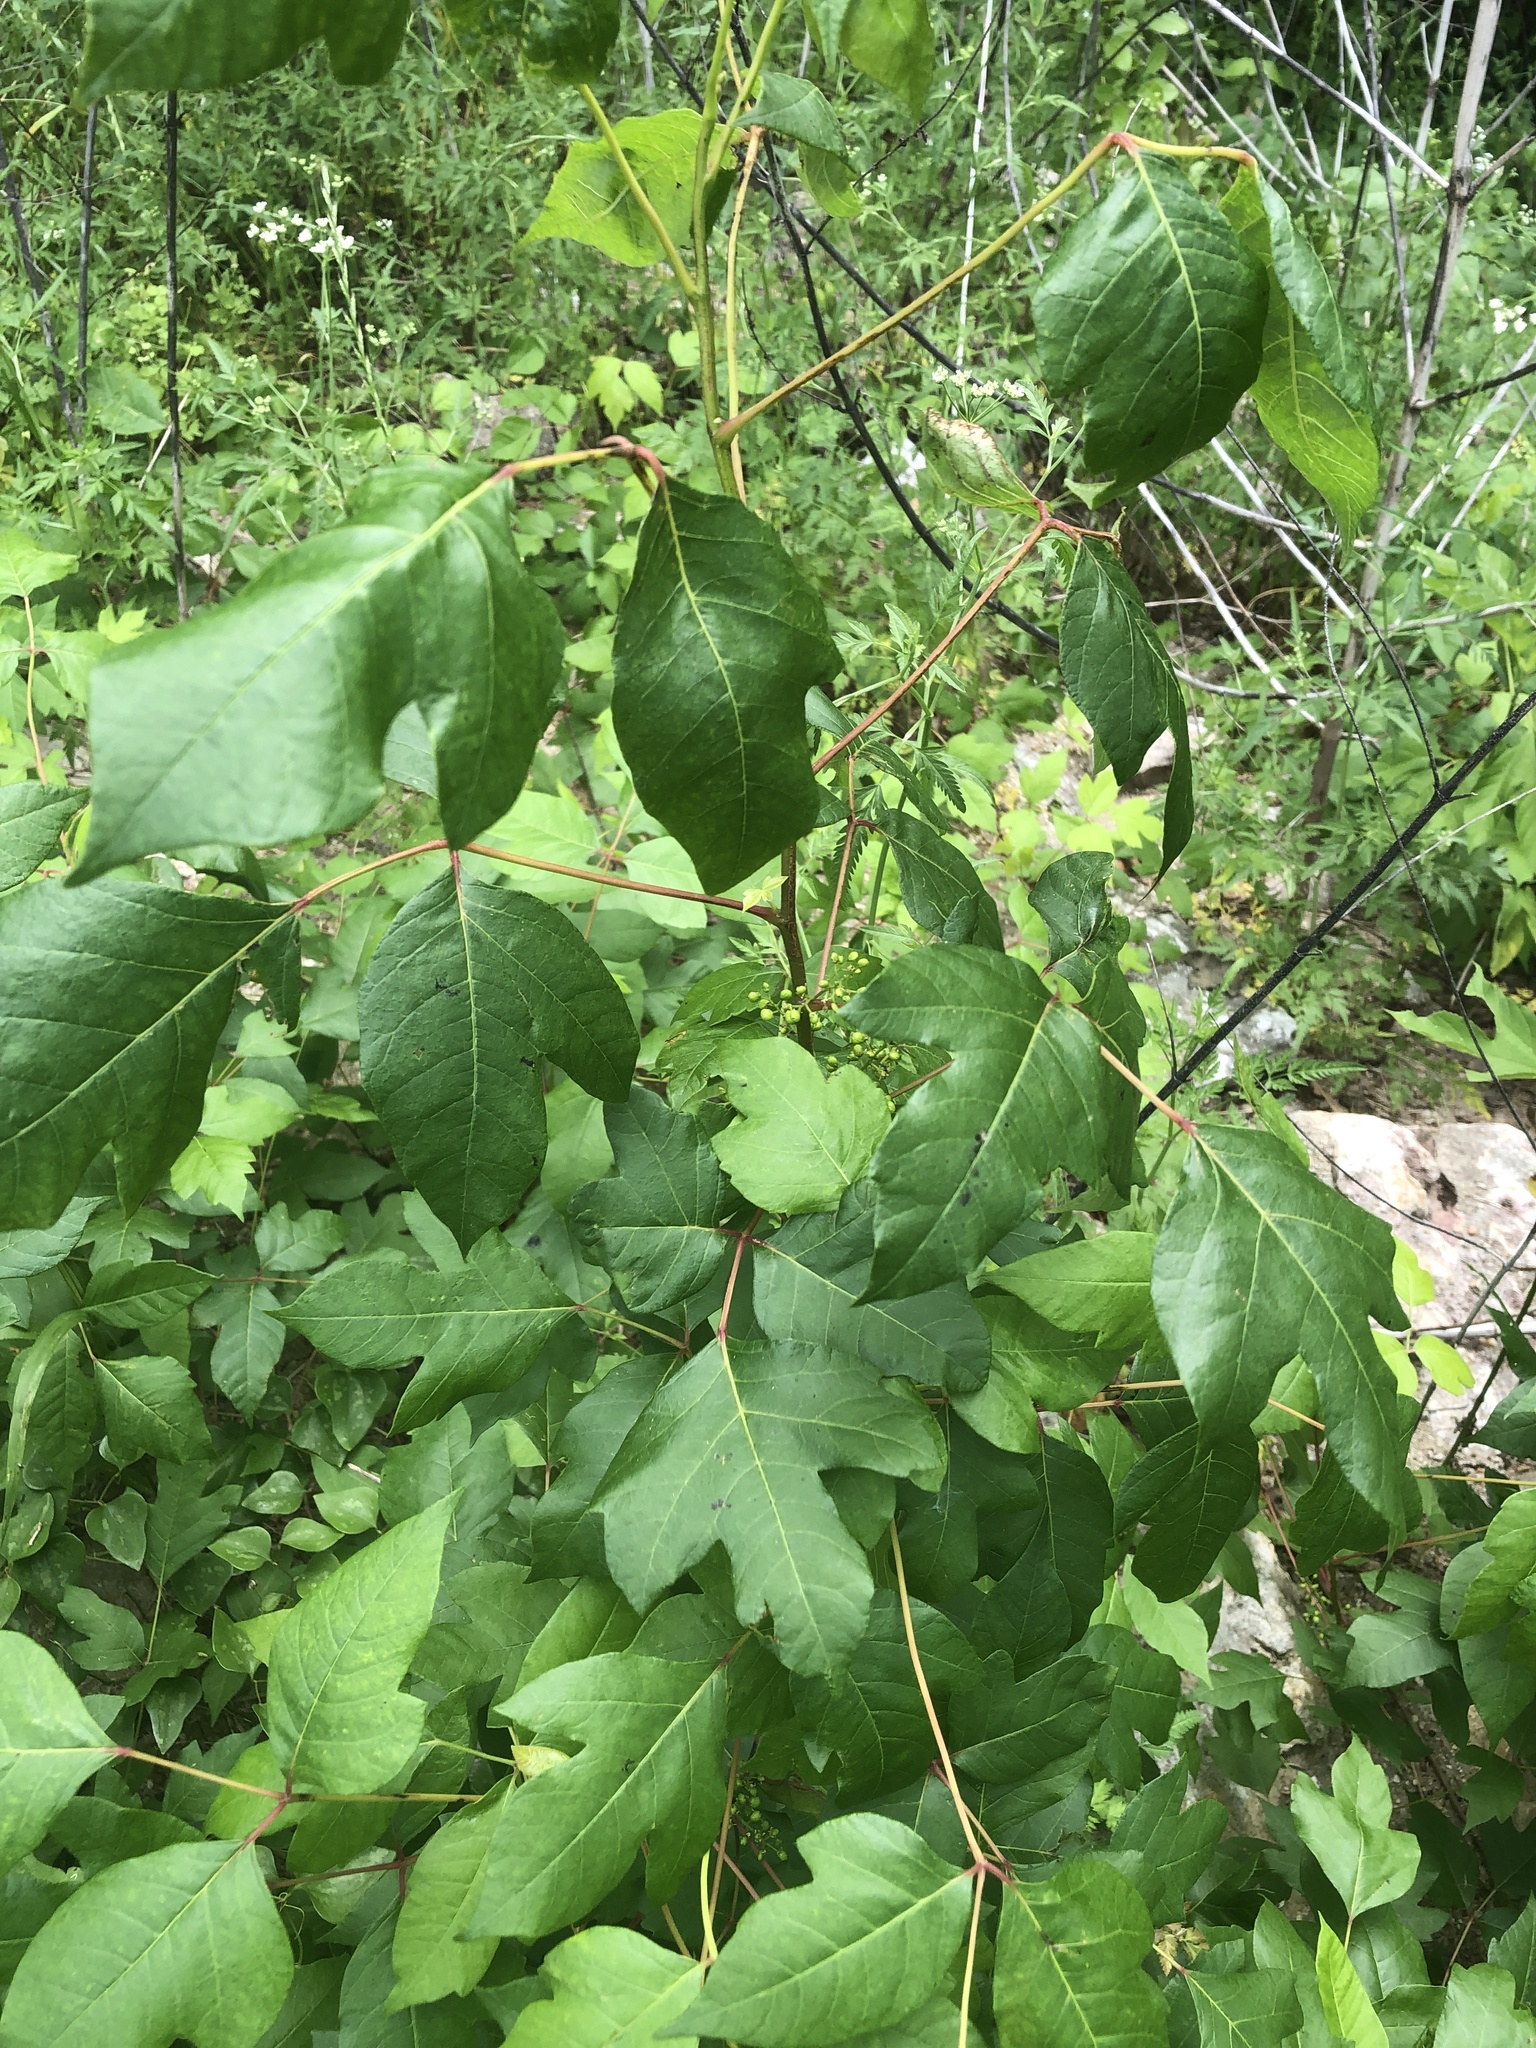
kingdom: Plantae
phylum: Tracheophyta
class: Magnoliopsida
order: Sapindales
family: Anacardiaceae
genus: Toxicodendron
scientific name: Toxicodendron radicans
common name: Poison ivy
